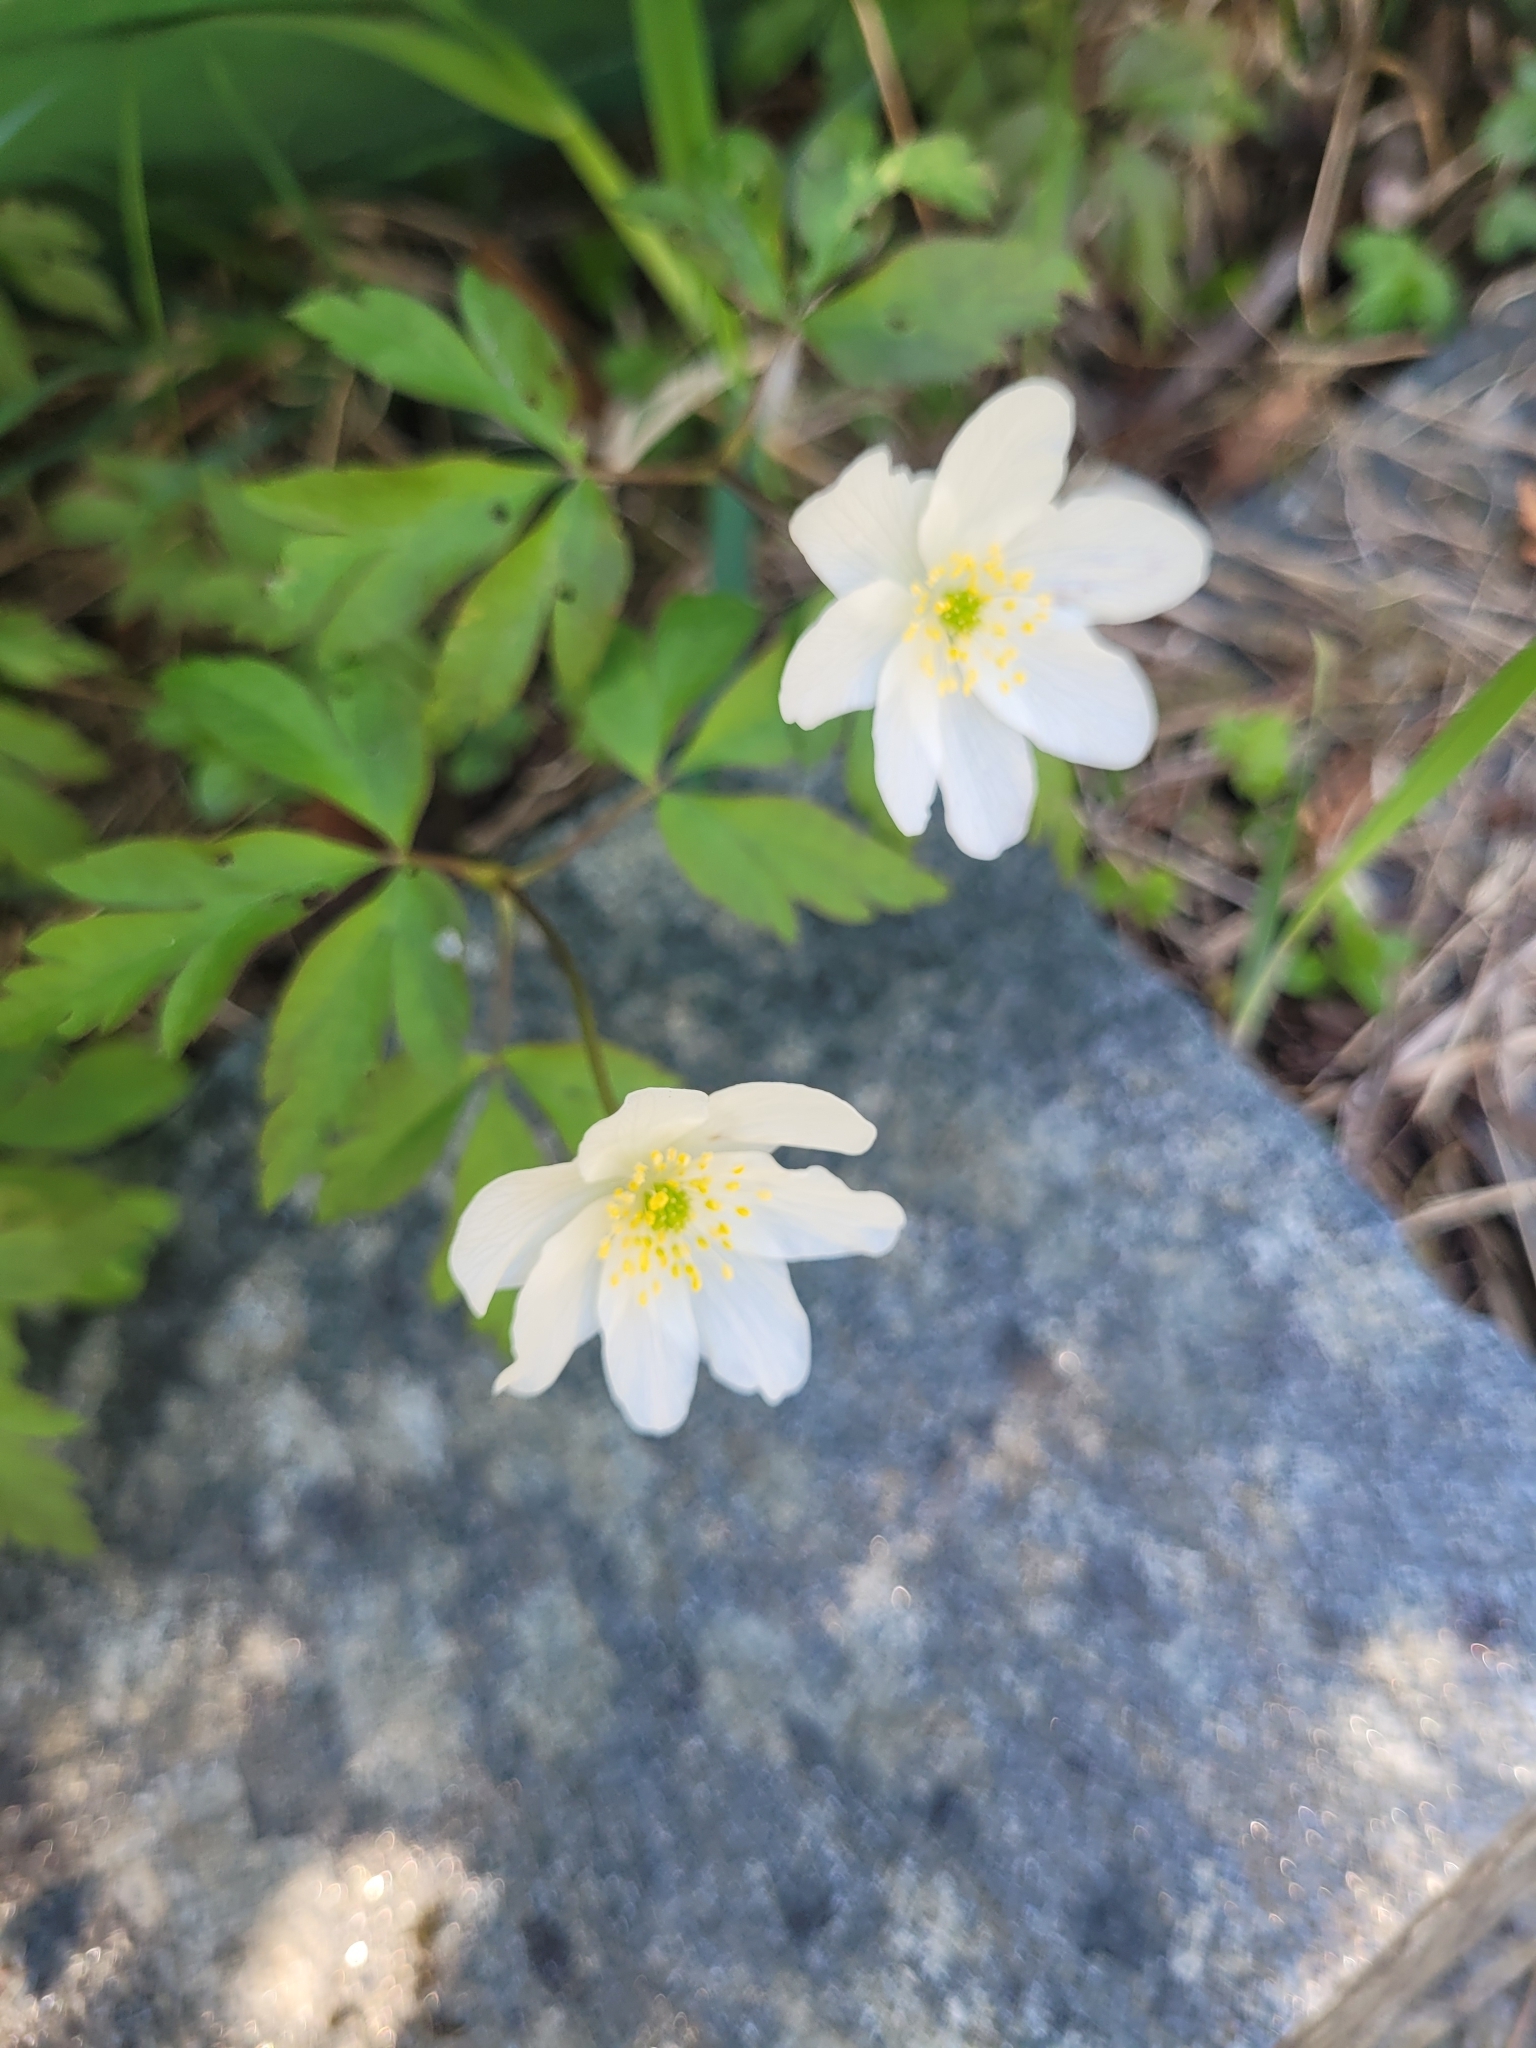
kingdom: Plantae
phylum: Tracheophyta
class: Magnoliopsida
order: Ranunculales
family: Ranunculaceae
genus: Anemone
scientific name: Anemone nemorosa
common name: Wood anemone
